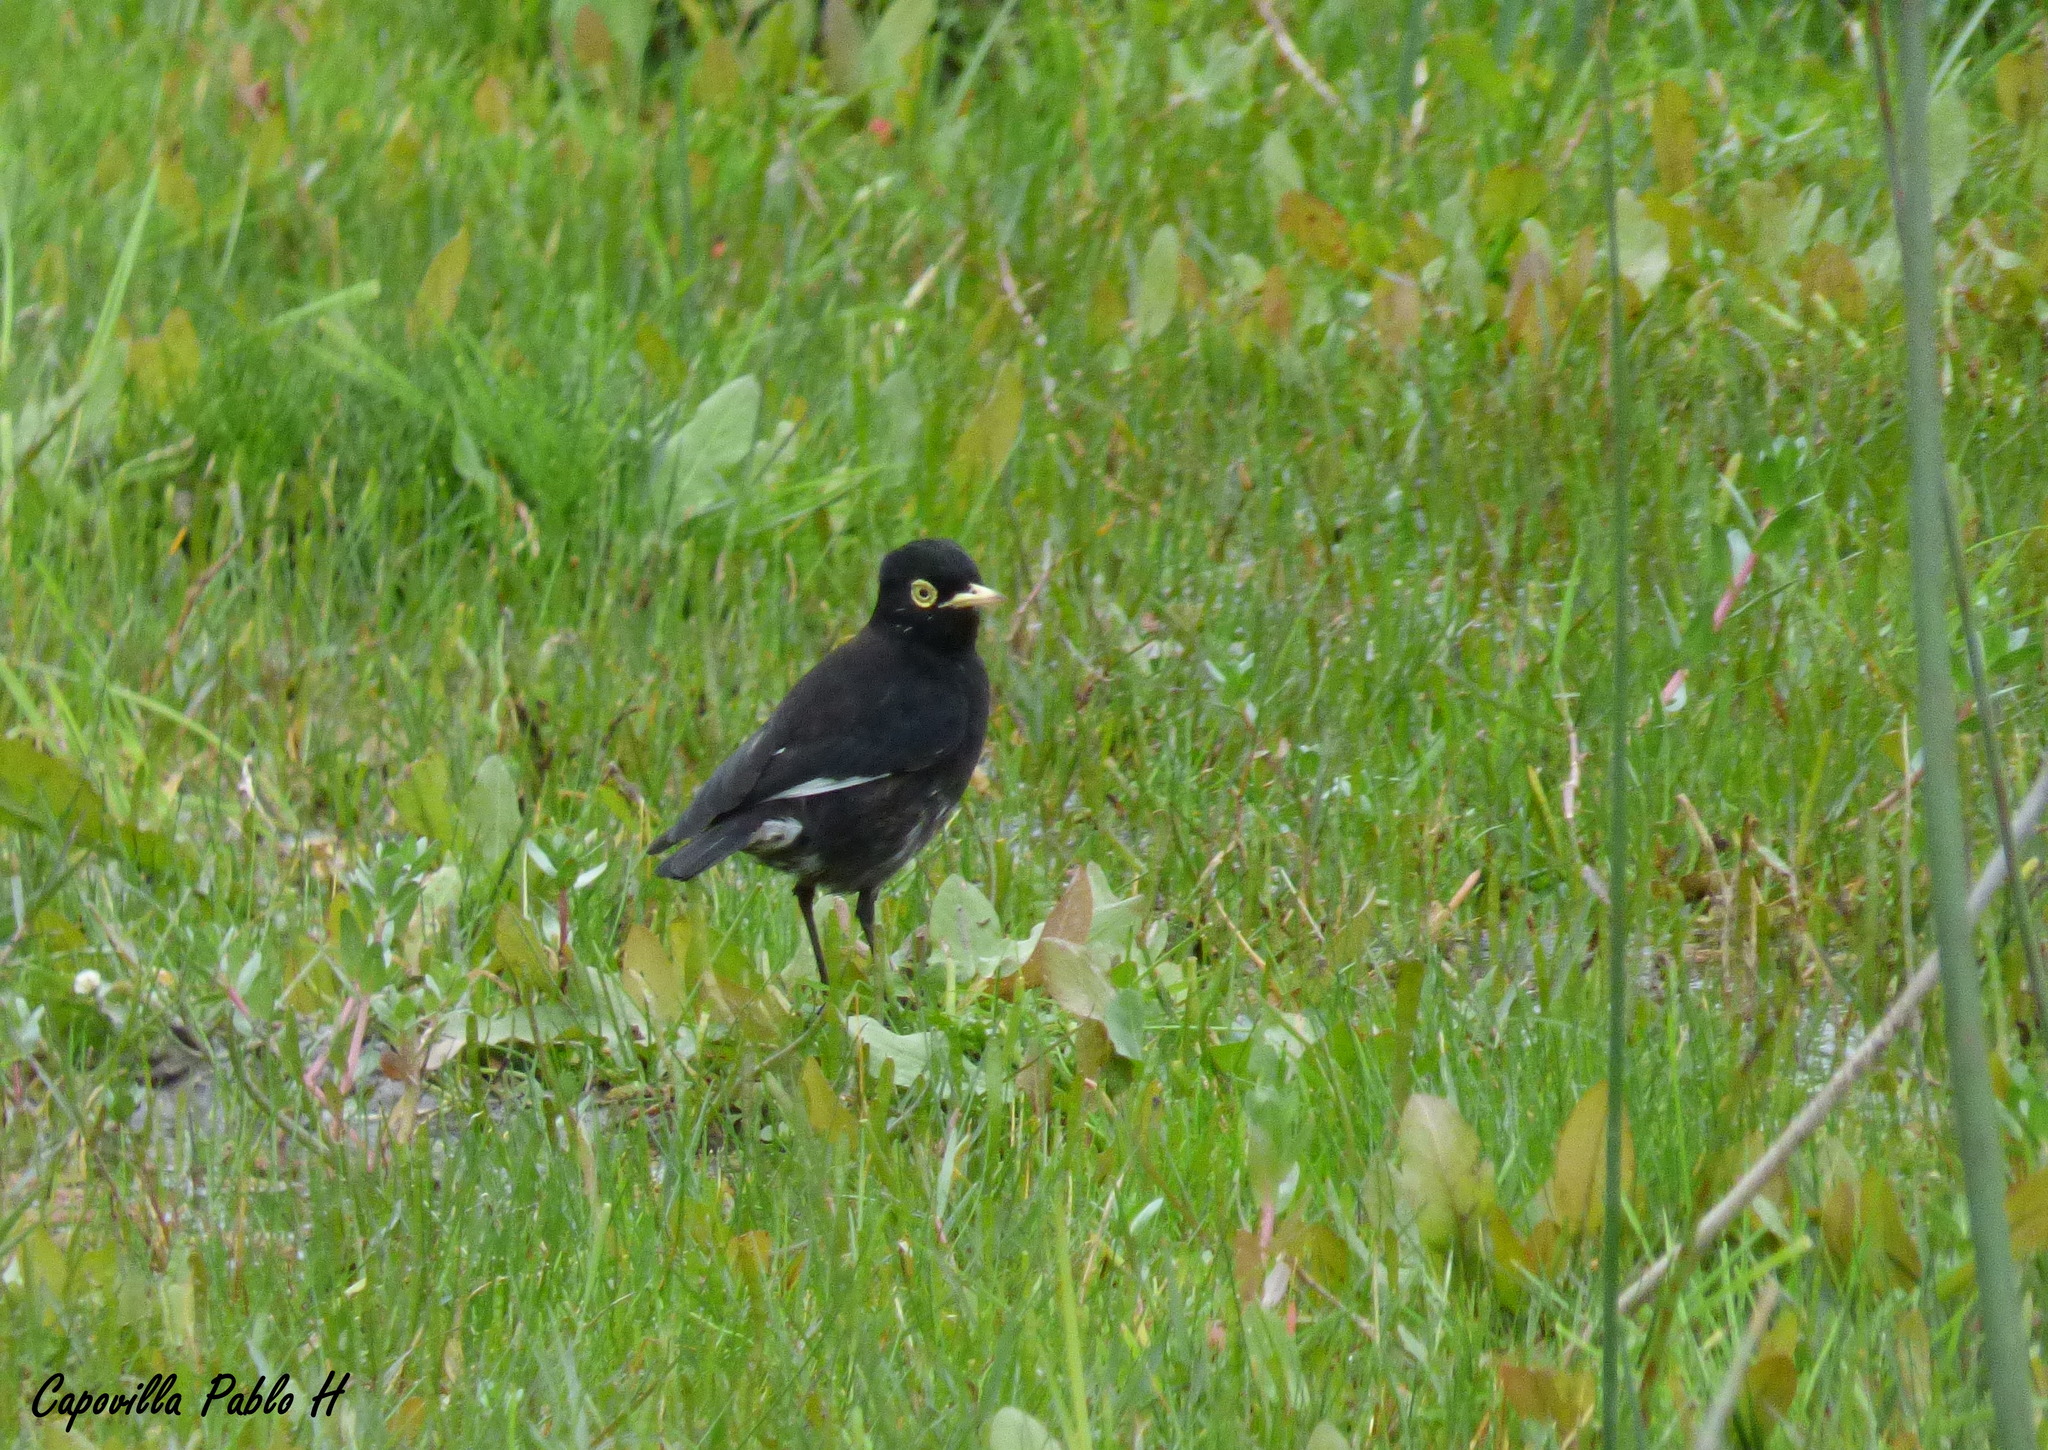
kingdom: Animalia
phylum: Chordata
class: Aves
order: Passeriformes
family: Tyrannidae
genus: Hymenops
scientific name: Hymenops perspicillatus
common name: Spectacled tyrant
